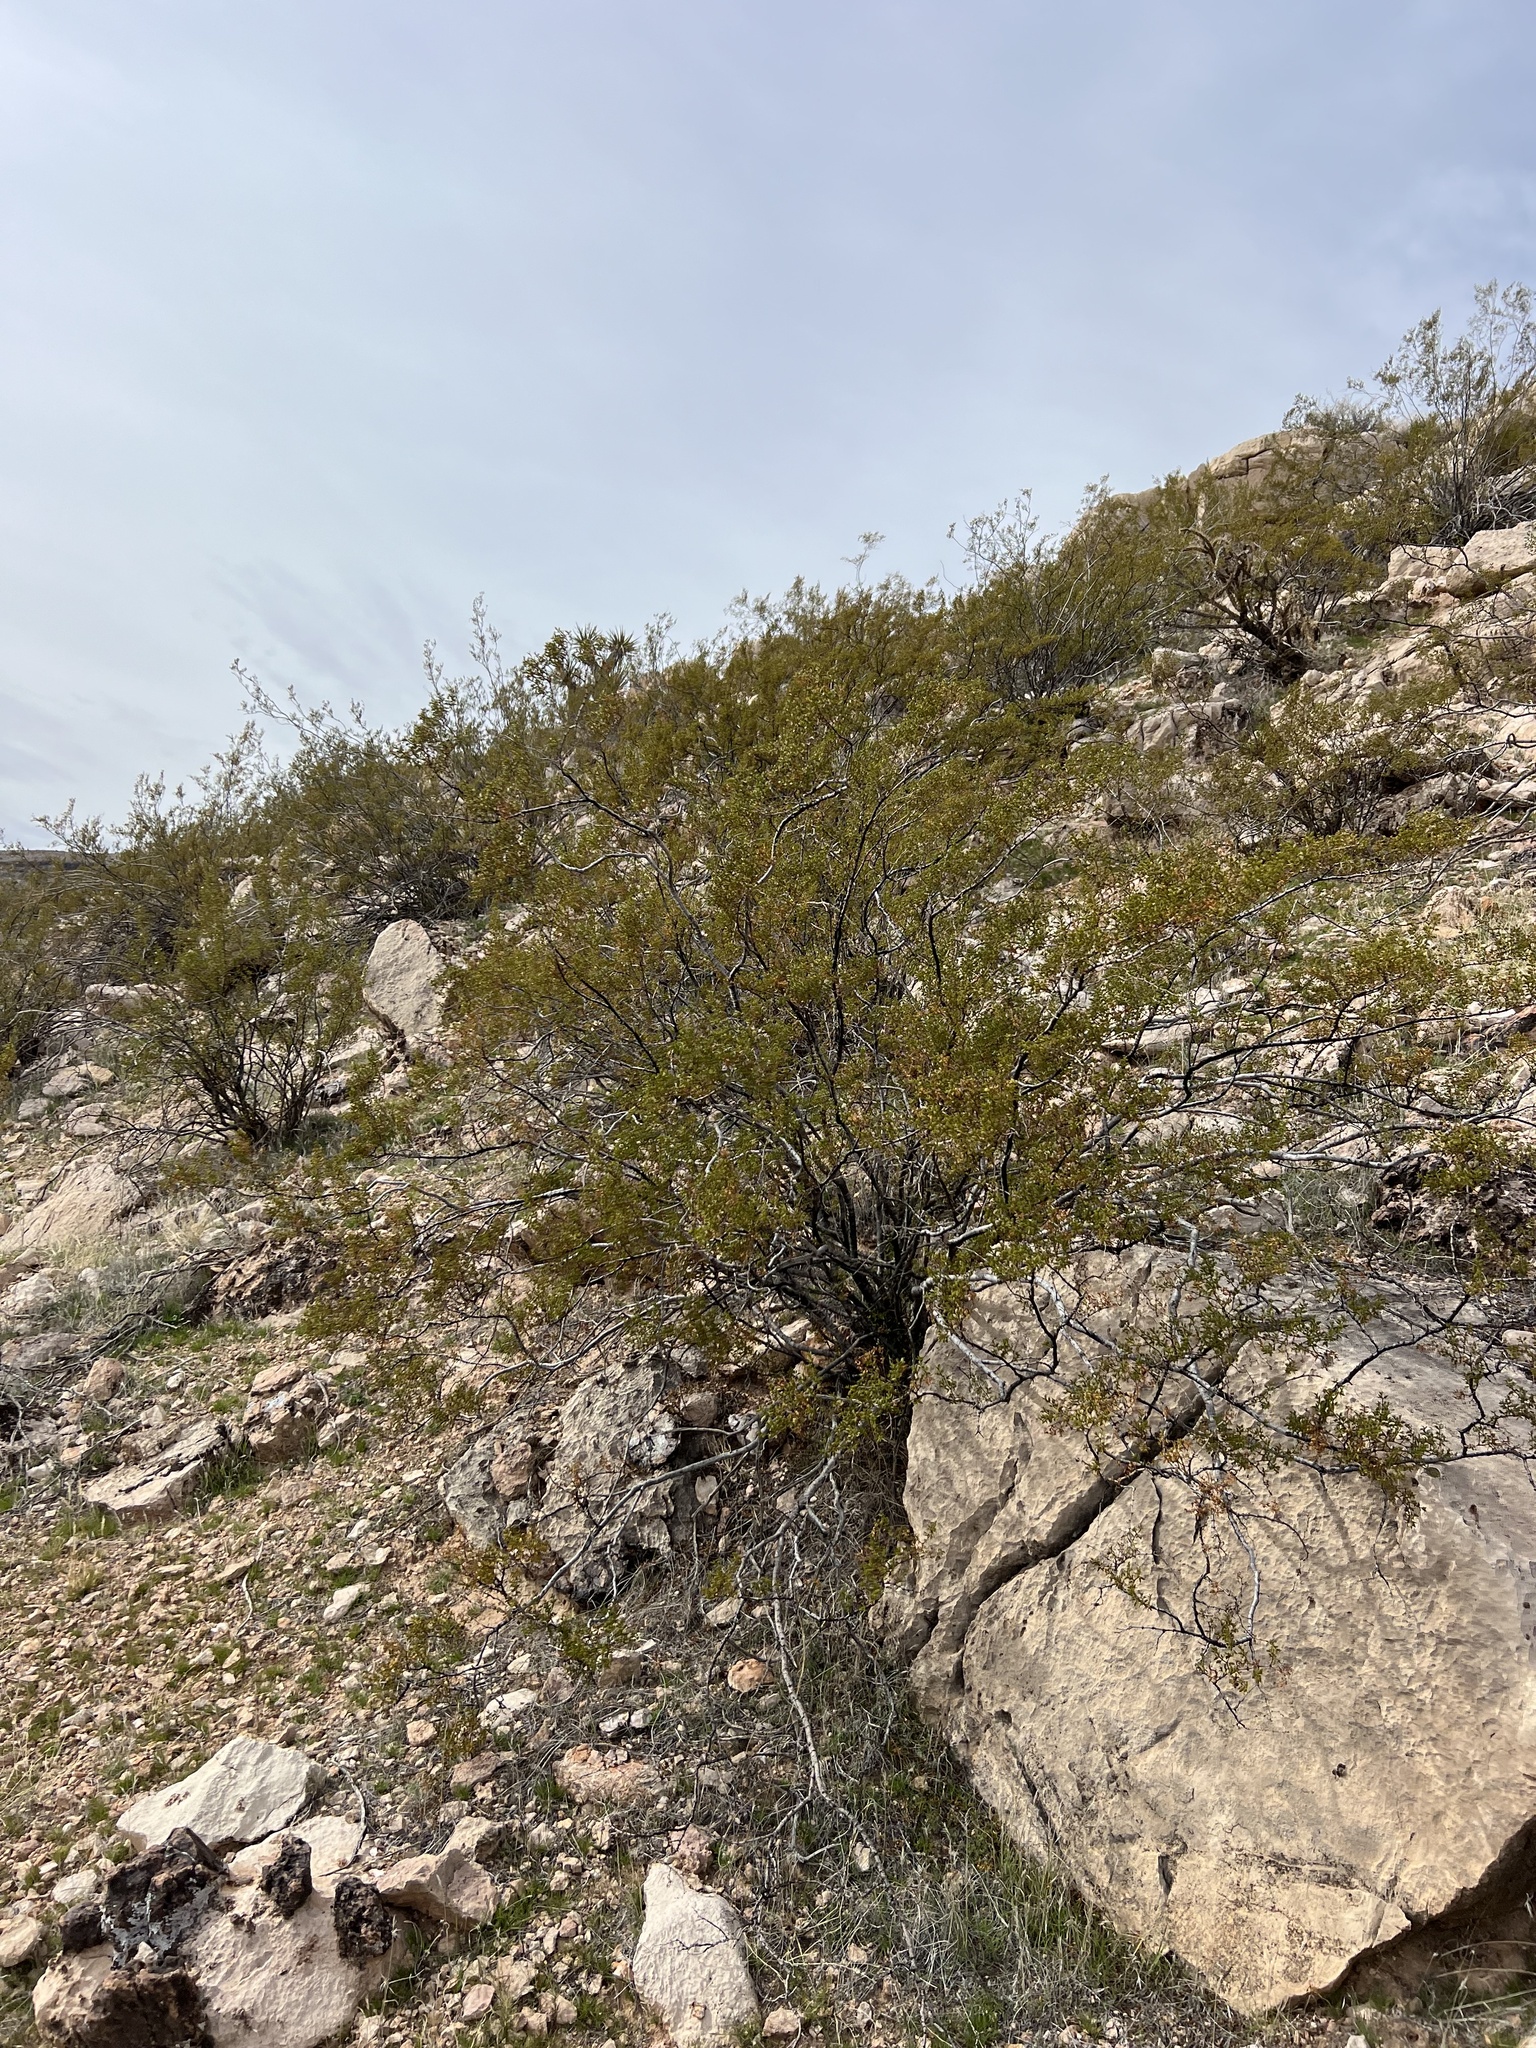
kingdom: Plantae
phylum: Tracheophyta
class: Magnoliopsida
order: Zygophyllales
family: Zygophyllaceae
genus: Larrea
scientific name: Larrea tridentata
